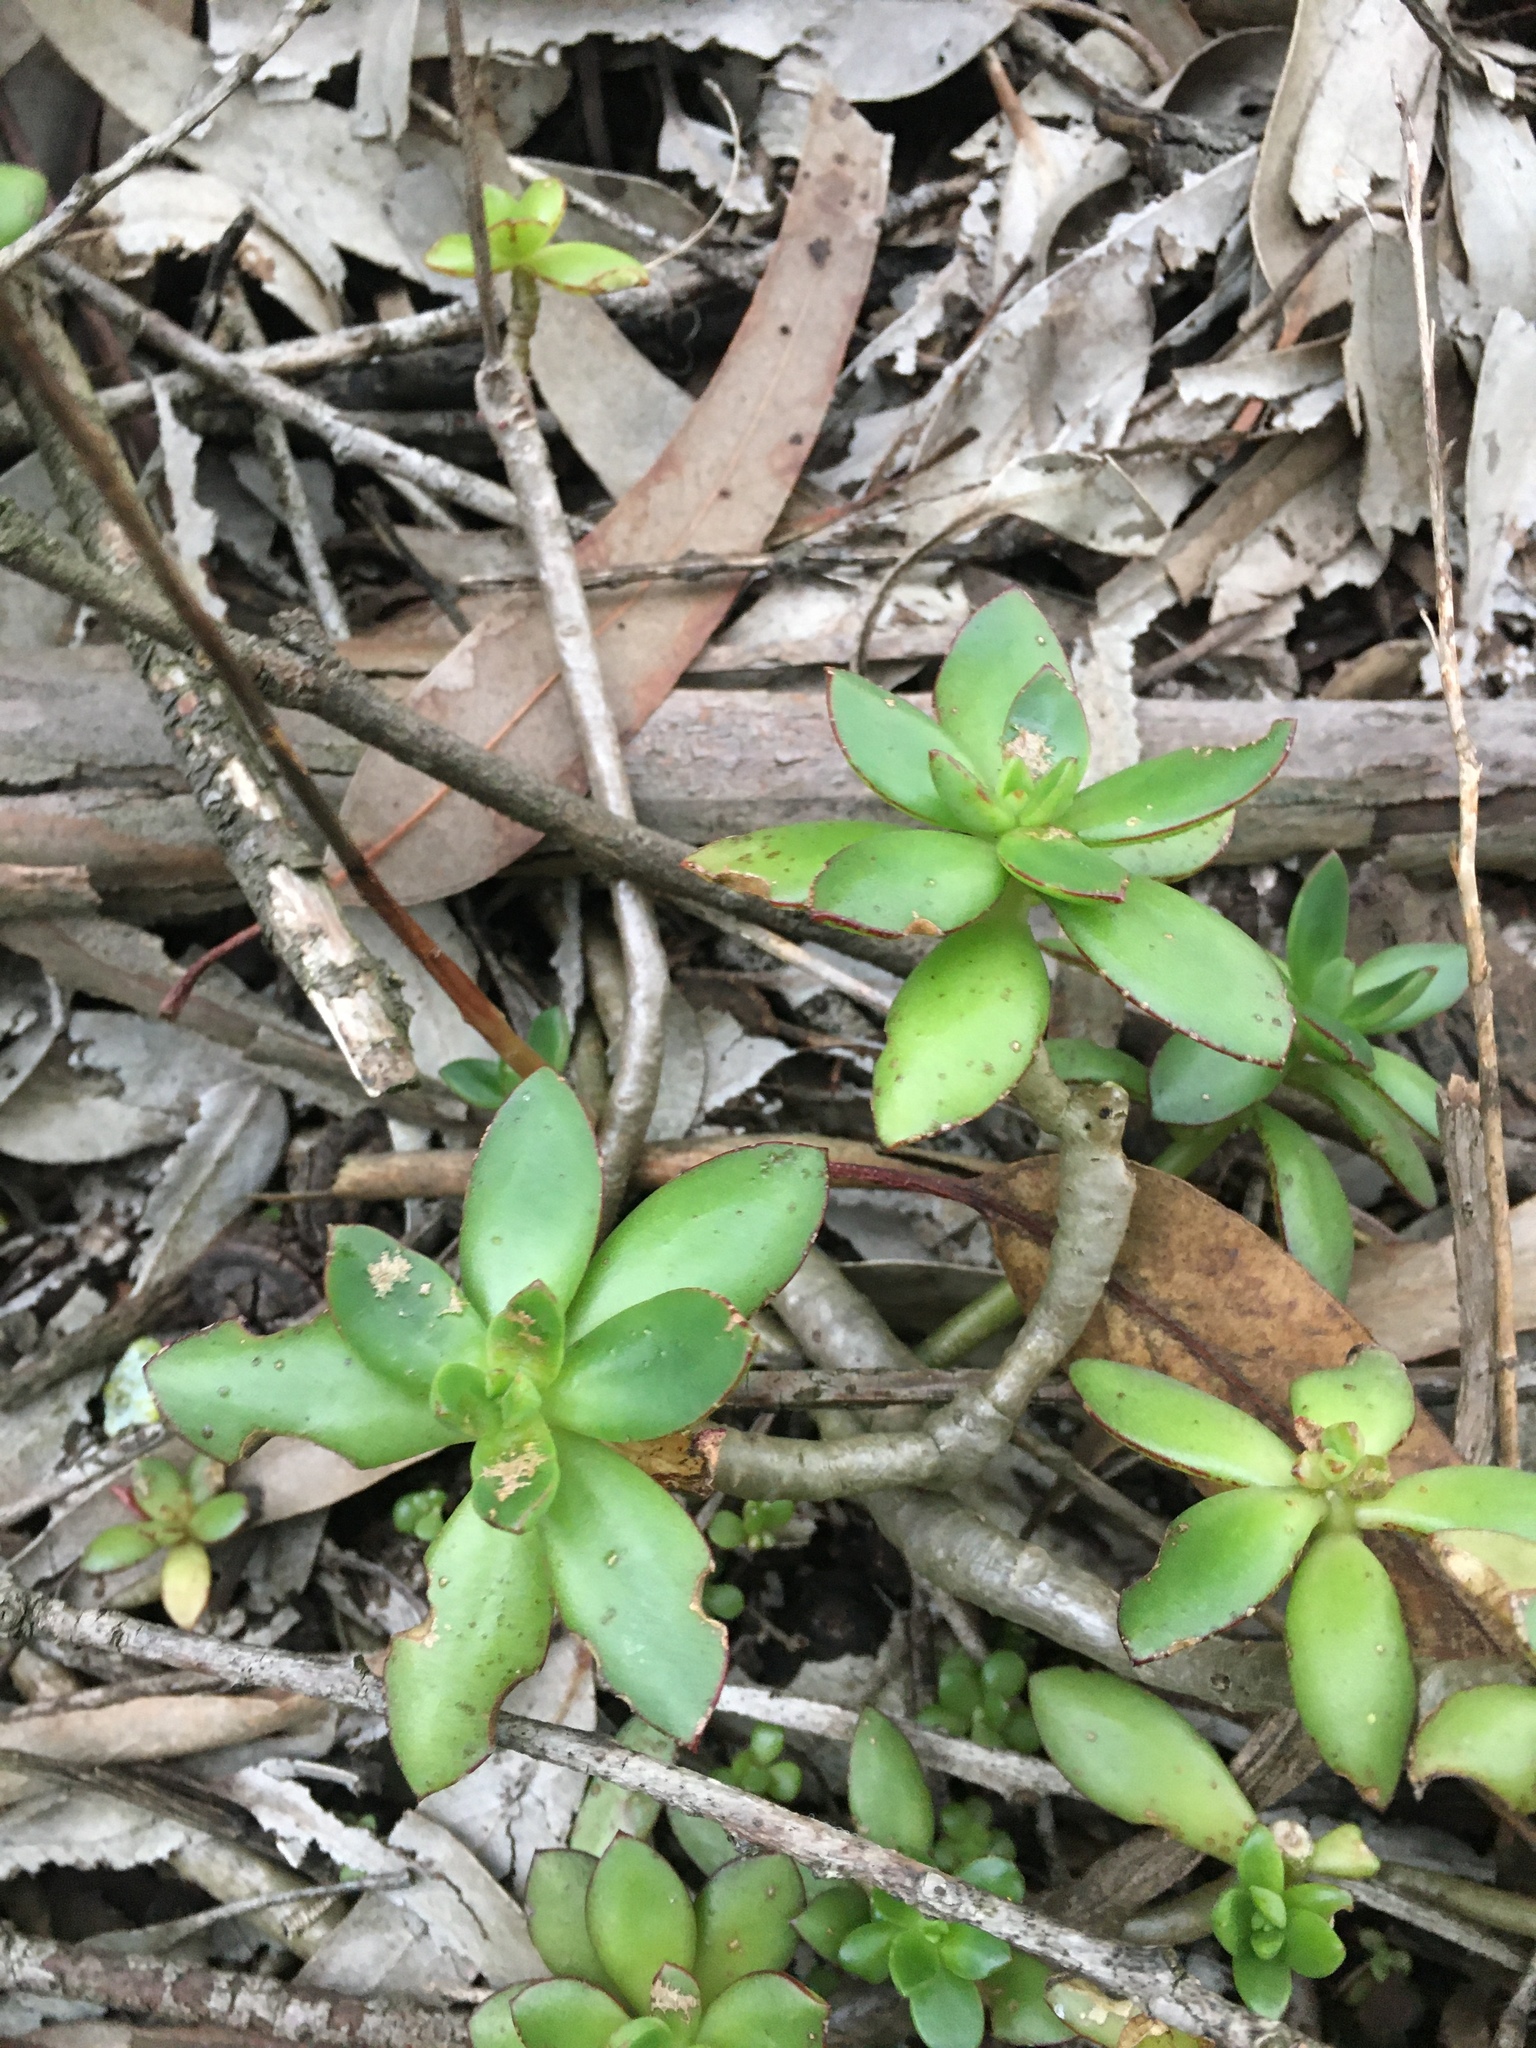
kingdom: Plantae
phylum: Tracheophyta
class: Magnoliopsida
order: Saxifragales
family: Crassulaceae
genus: Echeveria
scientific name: Echeveria bicolor
